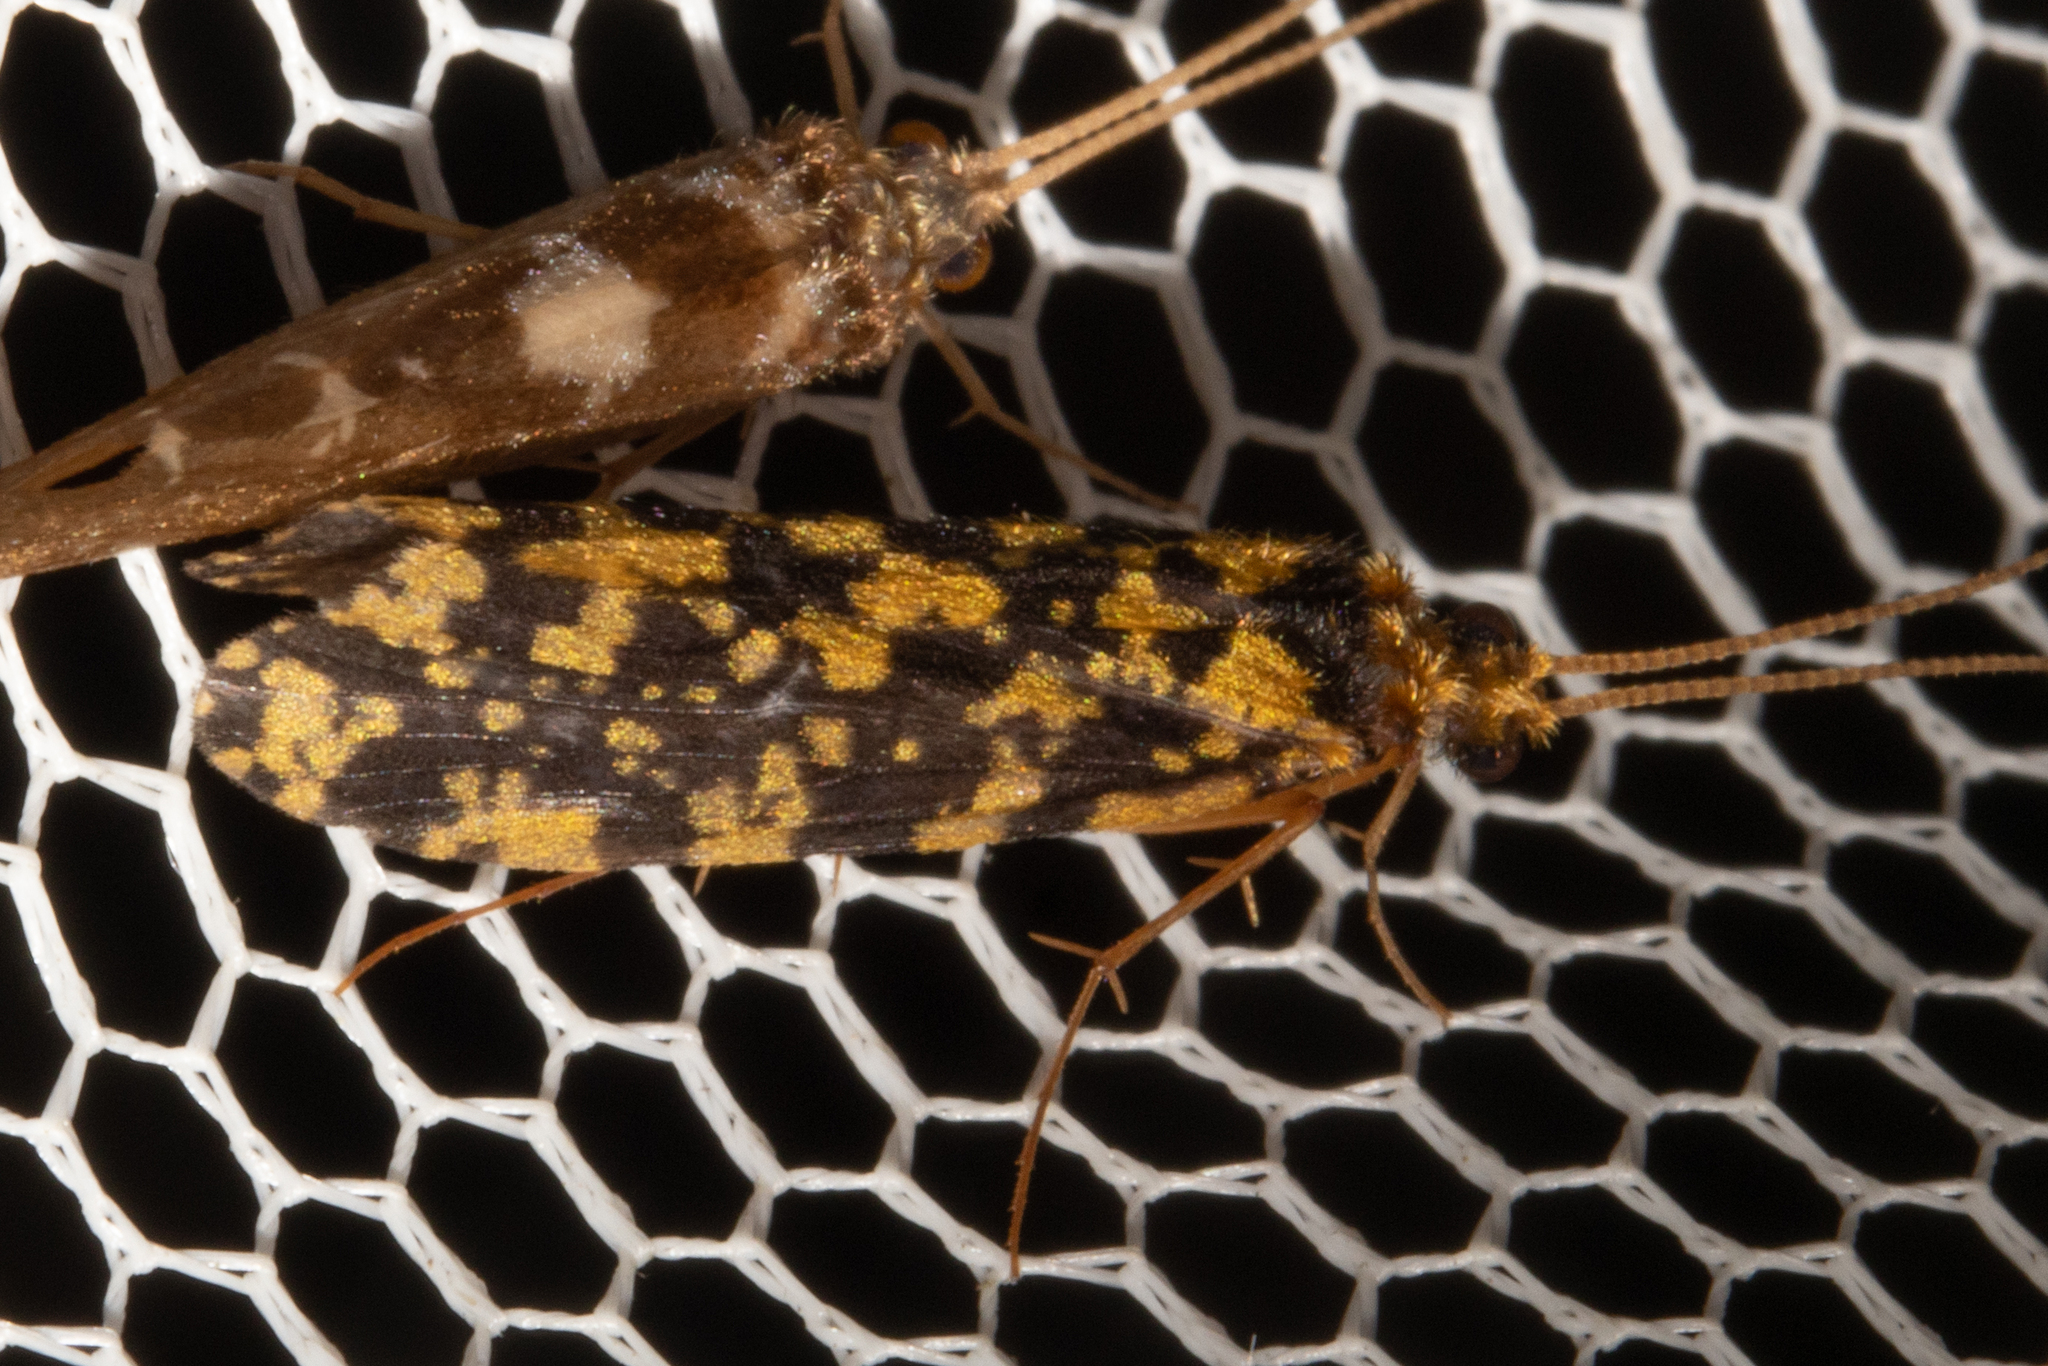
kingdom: Animalia
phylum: Arthropoda
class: Insecta
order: Trichoptera
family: Polycentropodidae
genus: Plectrocnemia
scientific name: Plectrocnemia tuhuae
